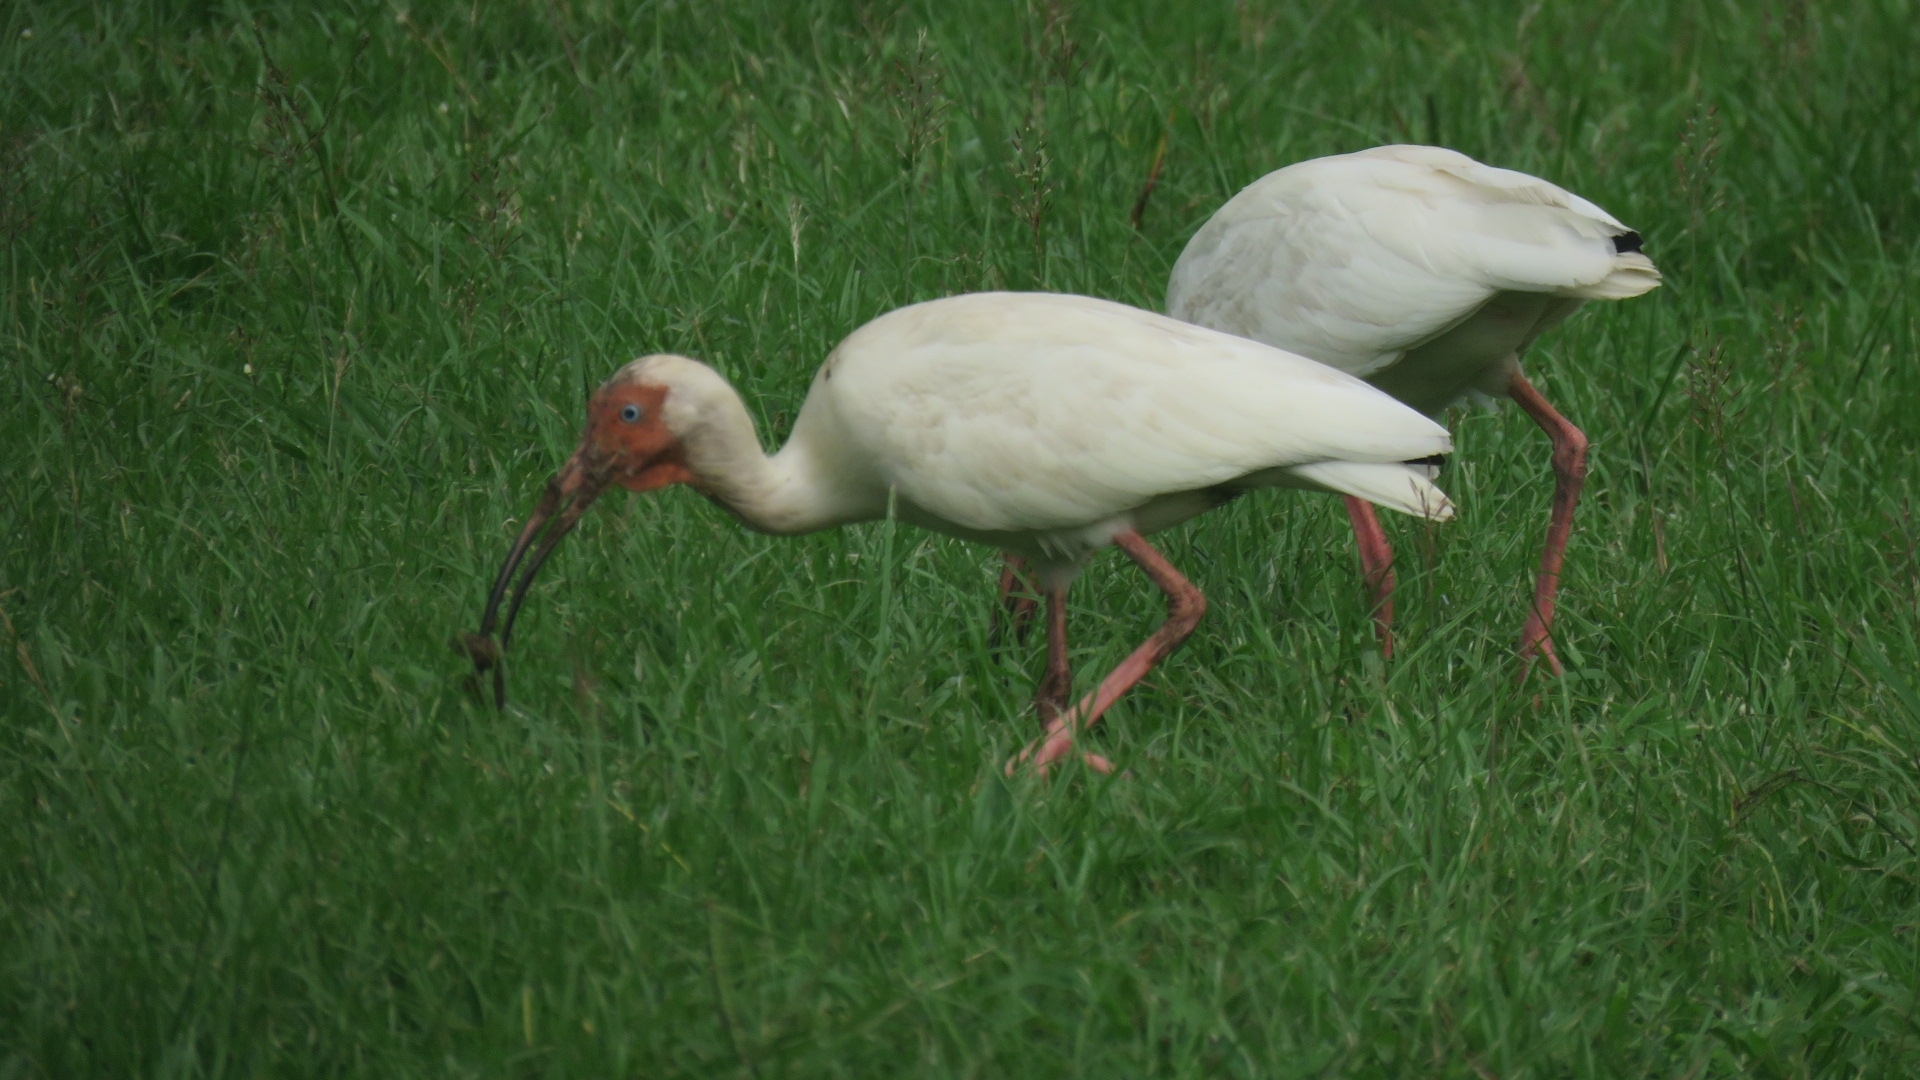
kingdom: Animalia
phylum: Chordata
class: Aves
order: Pelecaniformes
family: Threskiornithidae
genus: Eudocimus
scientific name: Eudocimus albus
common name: White ibis
